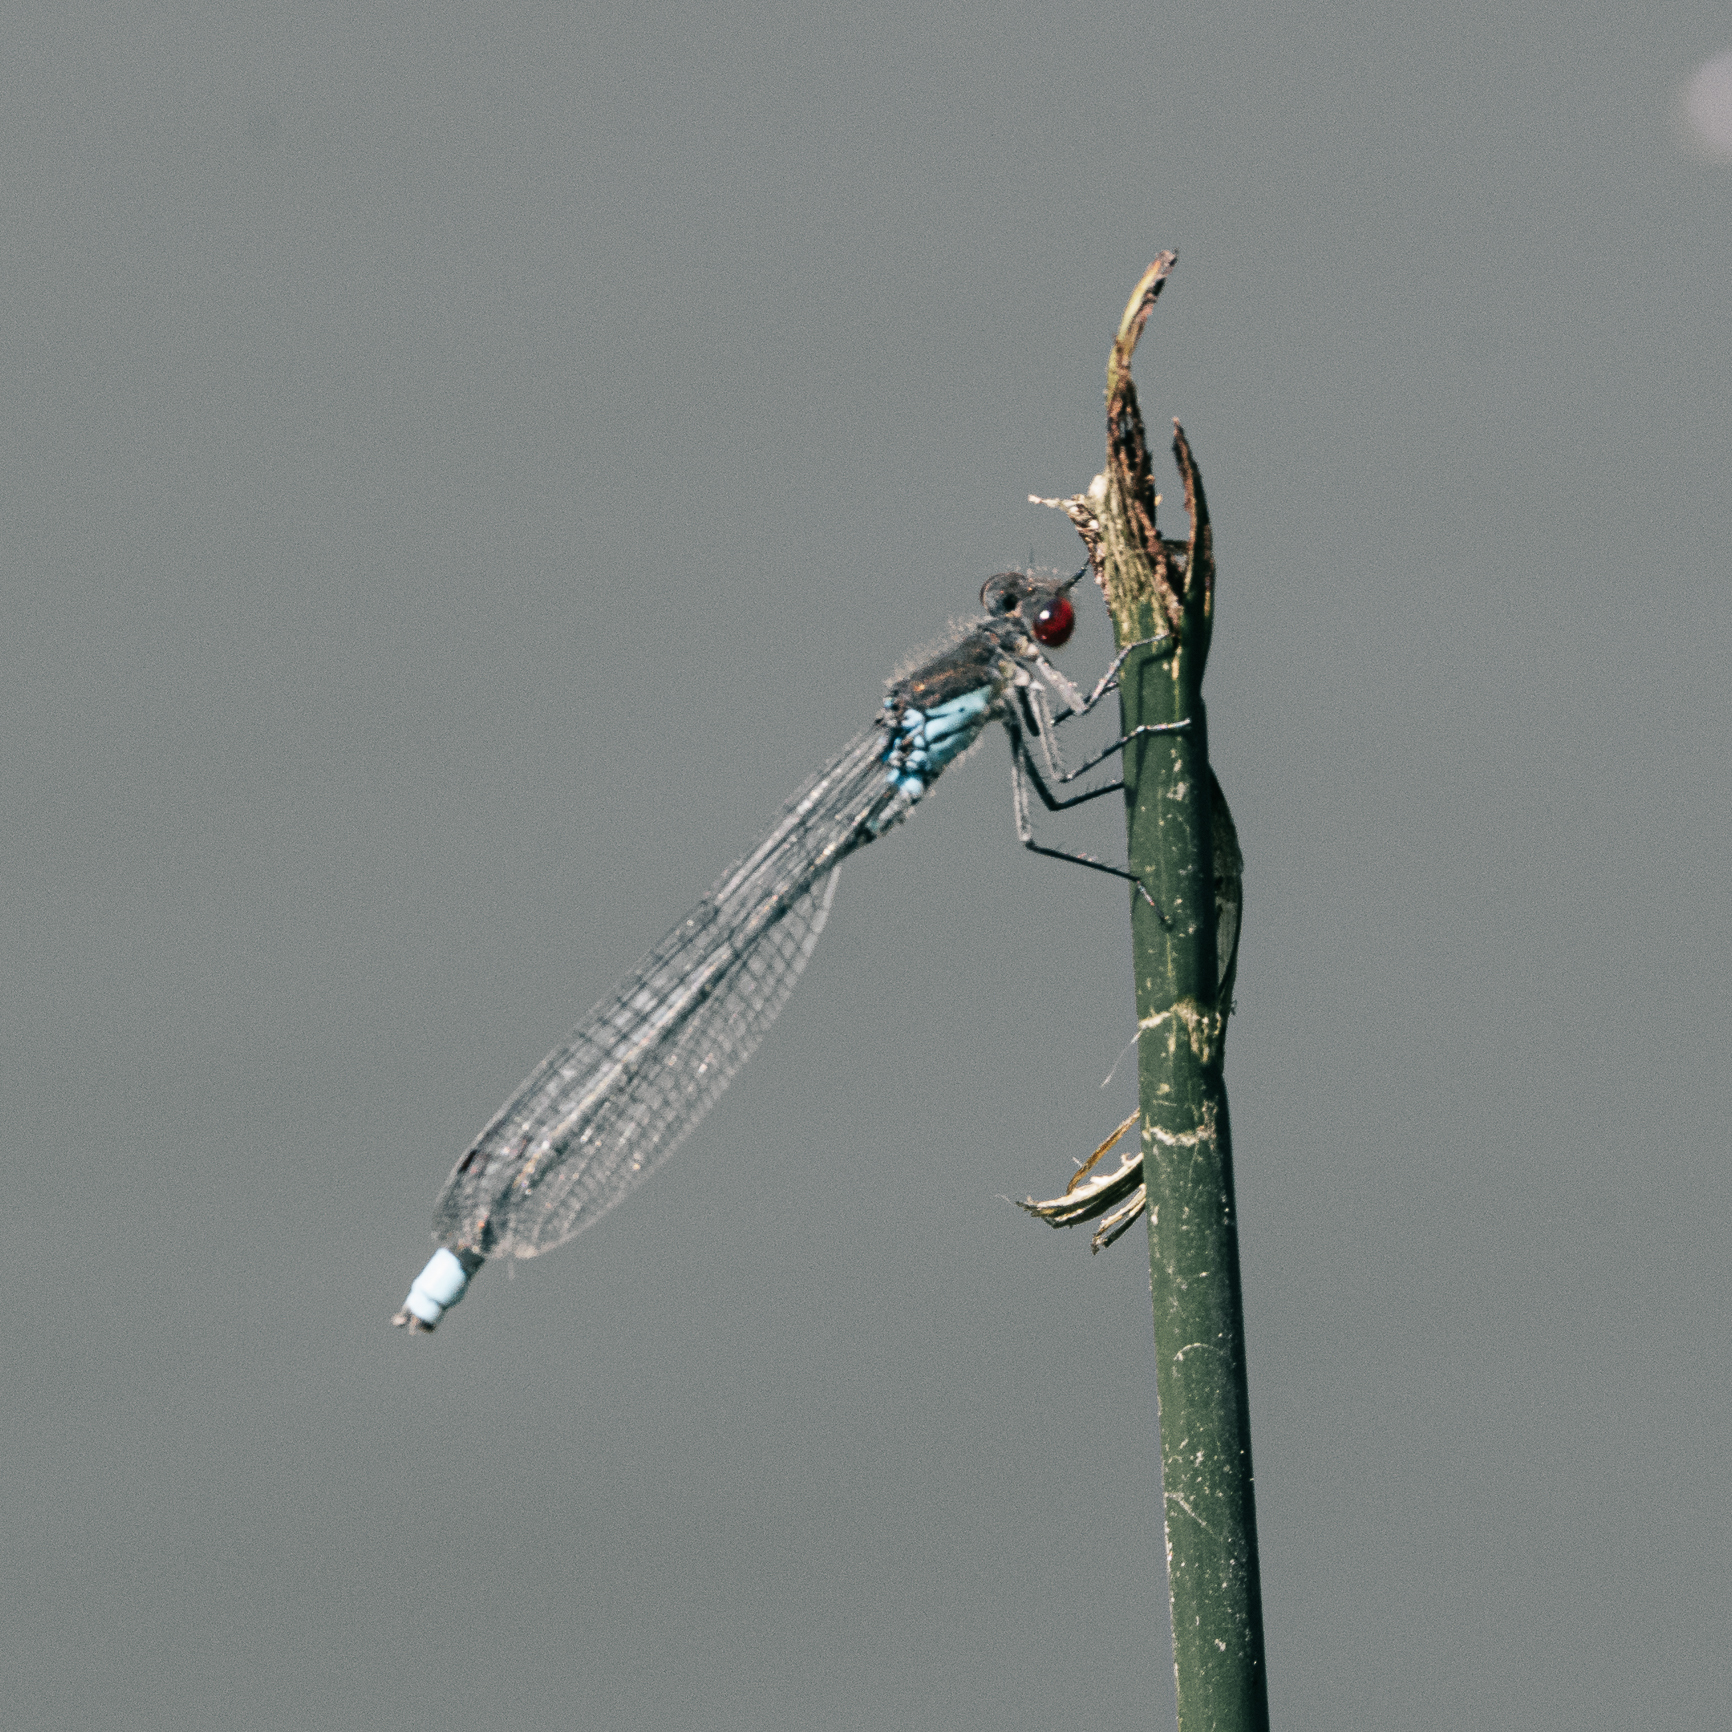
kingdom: Animalia
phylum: Arthropoda
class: Insecta
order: Odonata
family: Coenagrionidae
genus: Erythromma
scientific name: Erythromma najas
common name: Red-eyed damselfly
